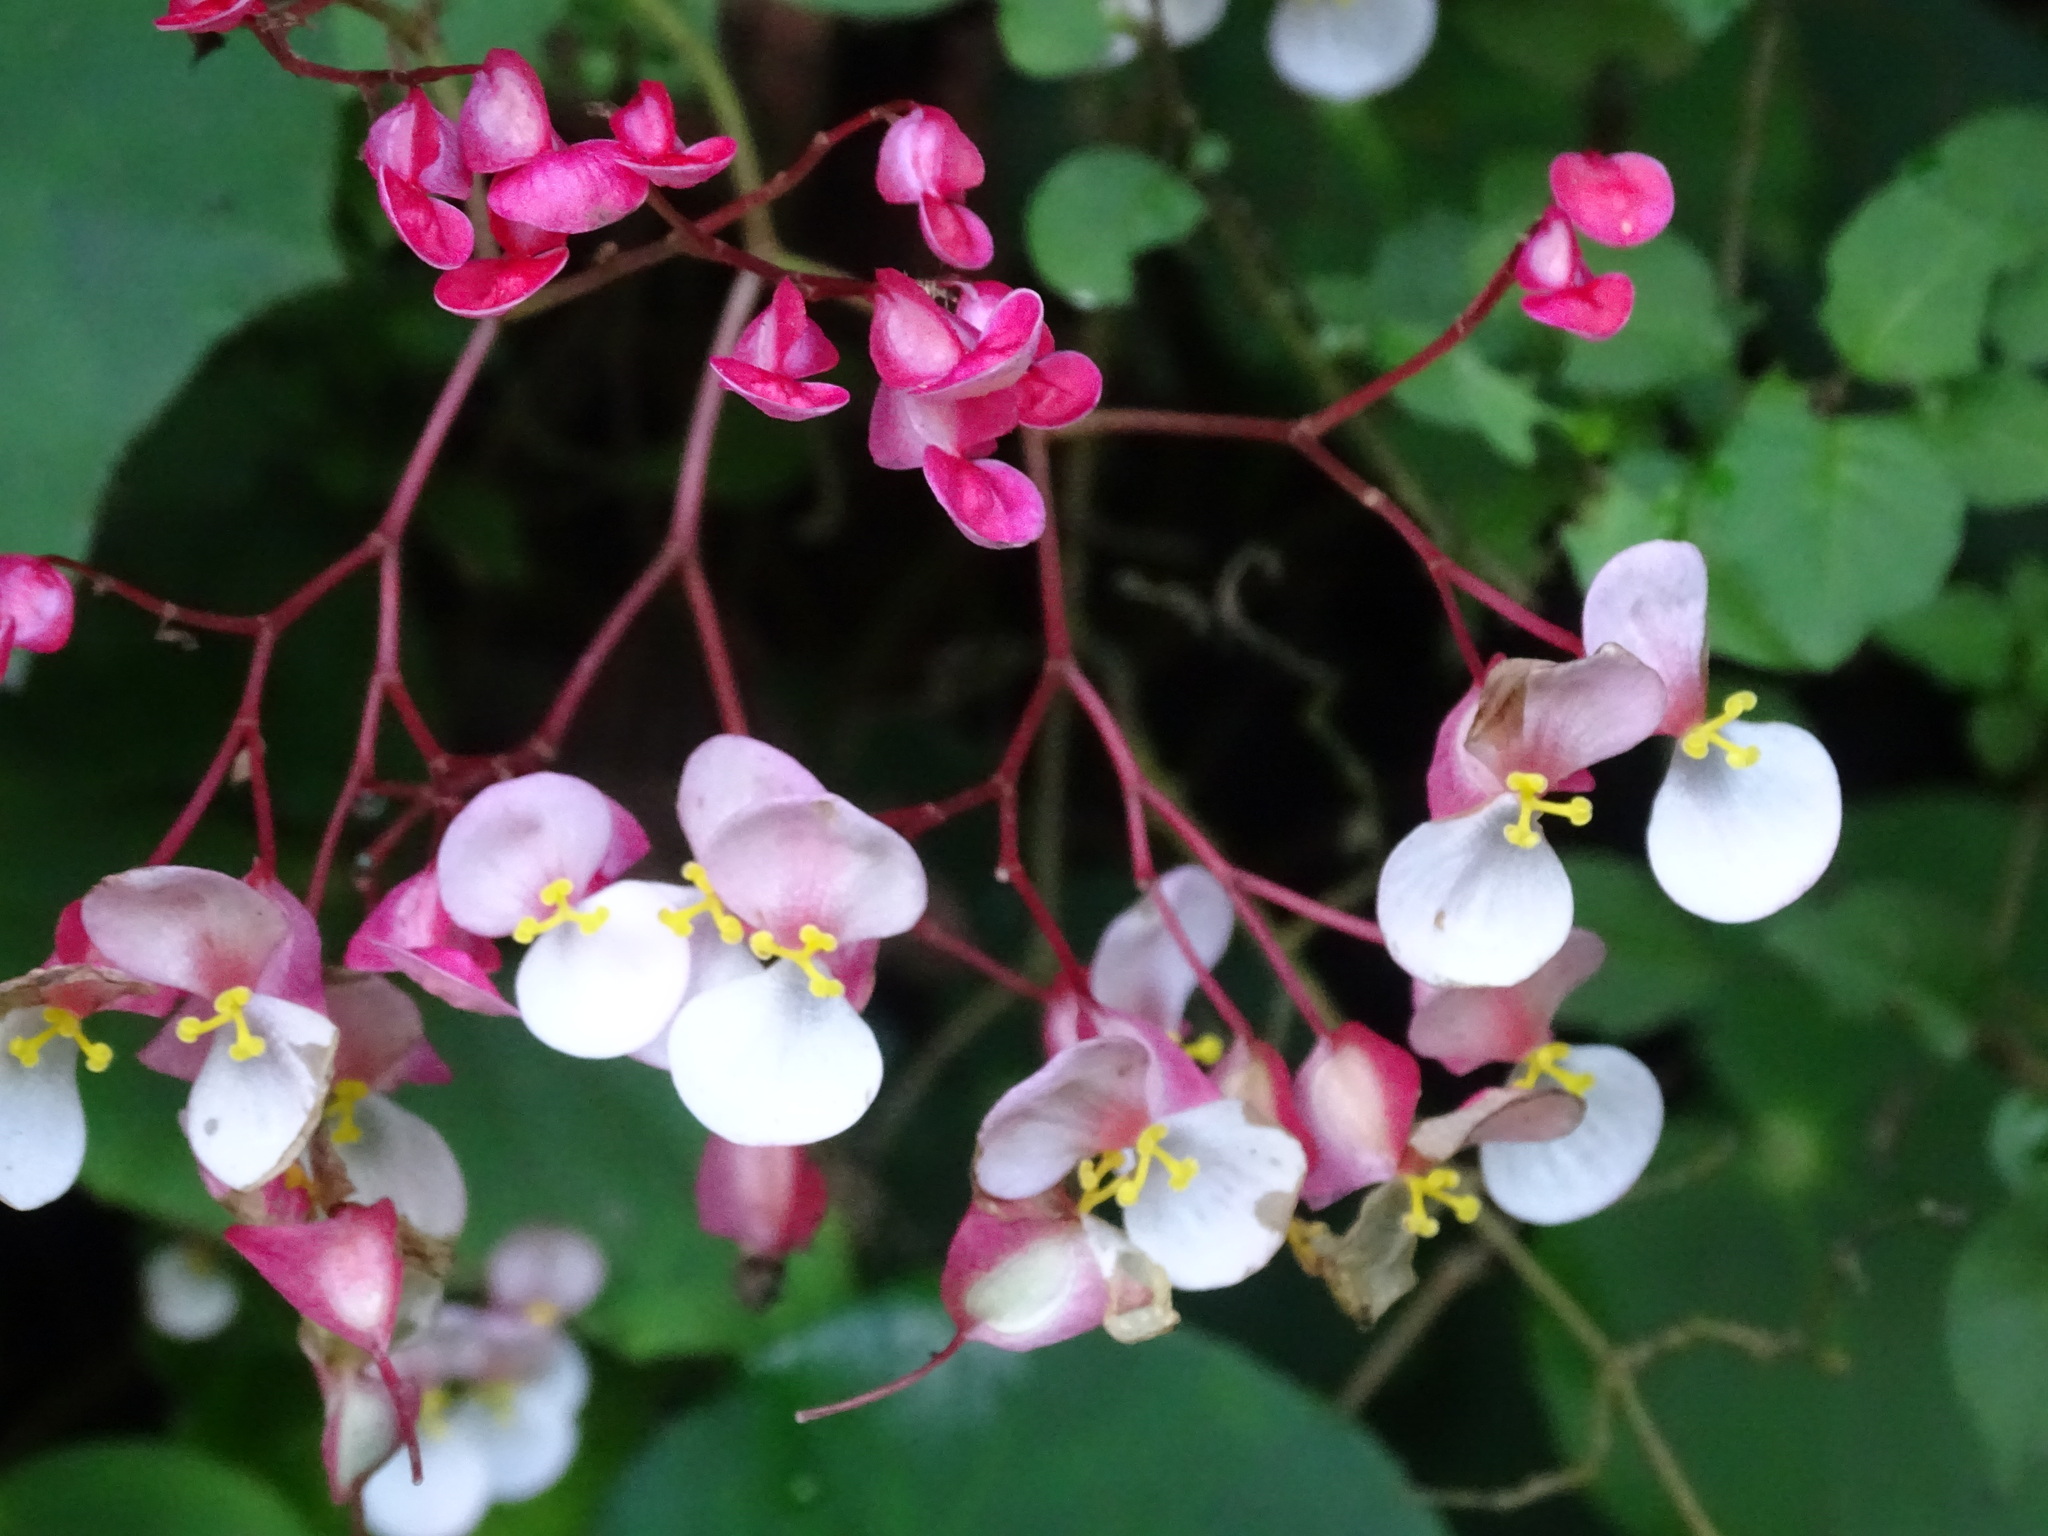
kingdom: Plantae
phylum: Tracheophyta
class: Magnoliopsida
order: Cucurbitales
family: Begoniaceae
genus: Begonia
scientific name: Begonia motozintlensis
